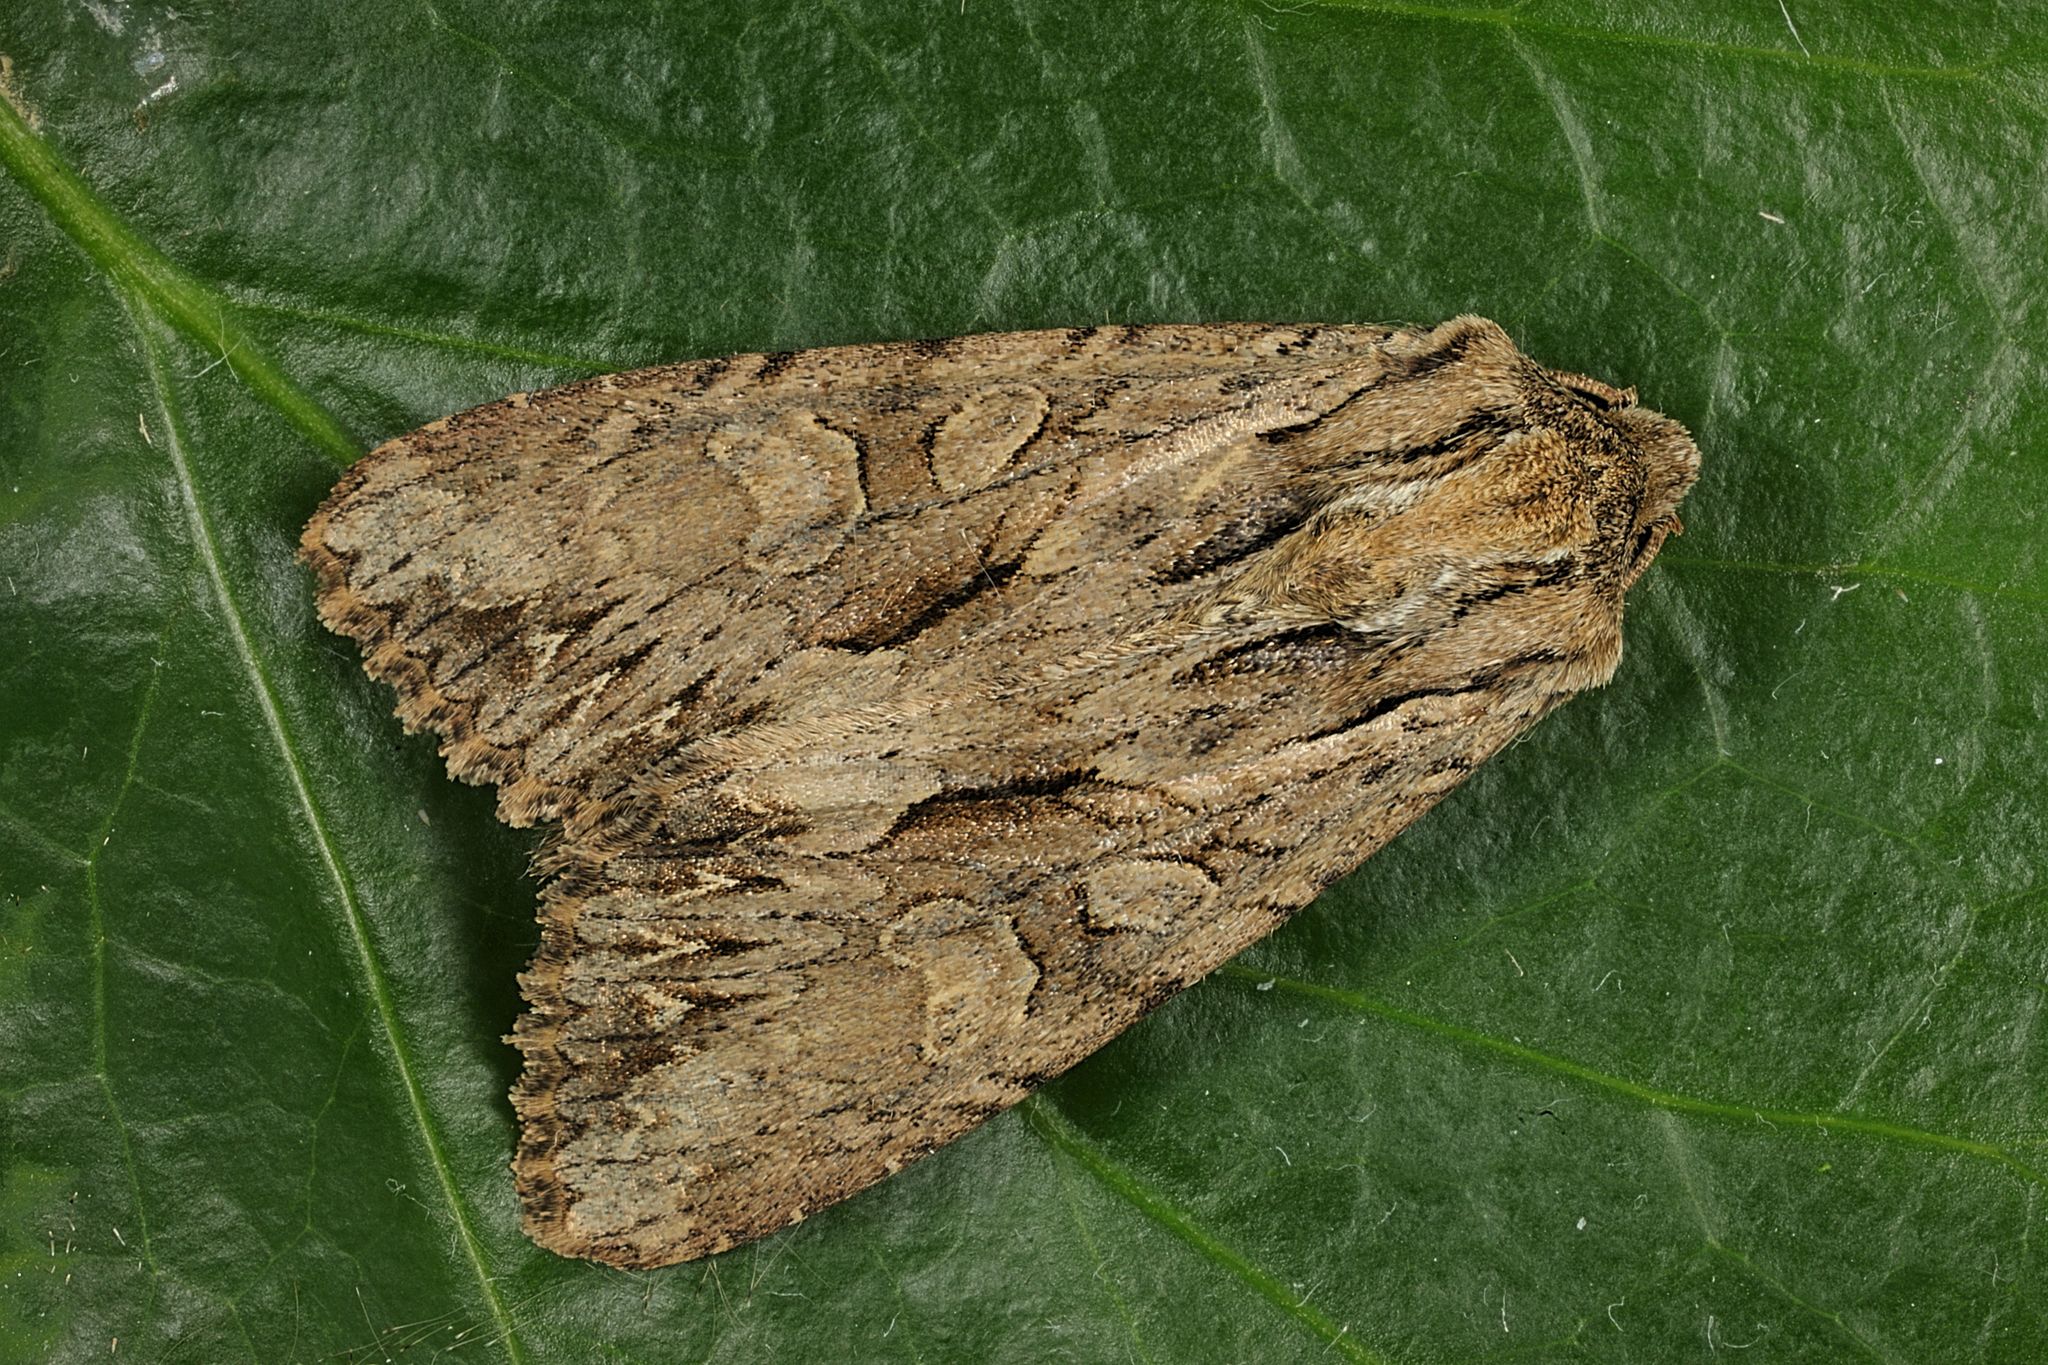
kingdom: Animalia
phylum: Arthropoda
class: Insecta
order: Lepidoptera
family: Noctuidae
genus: Apamea
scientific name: Apamea monoglypha
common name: Dark arches
